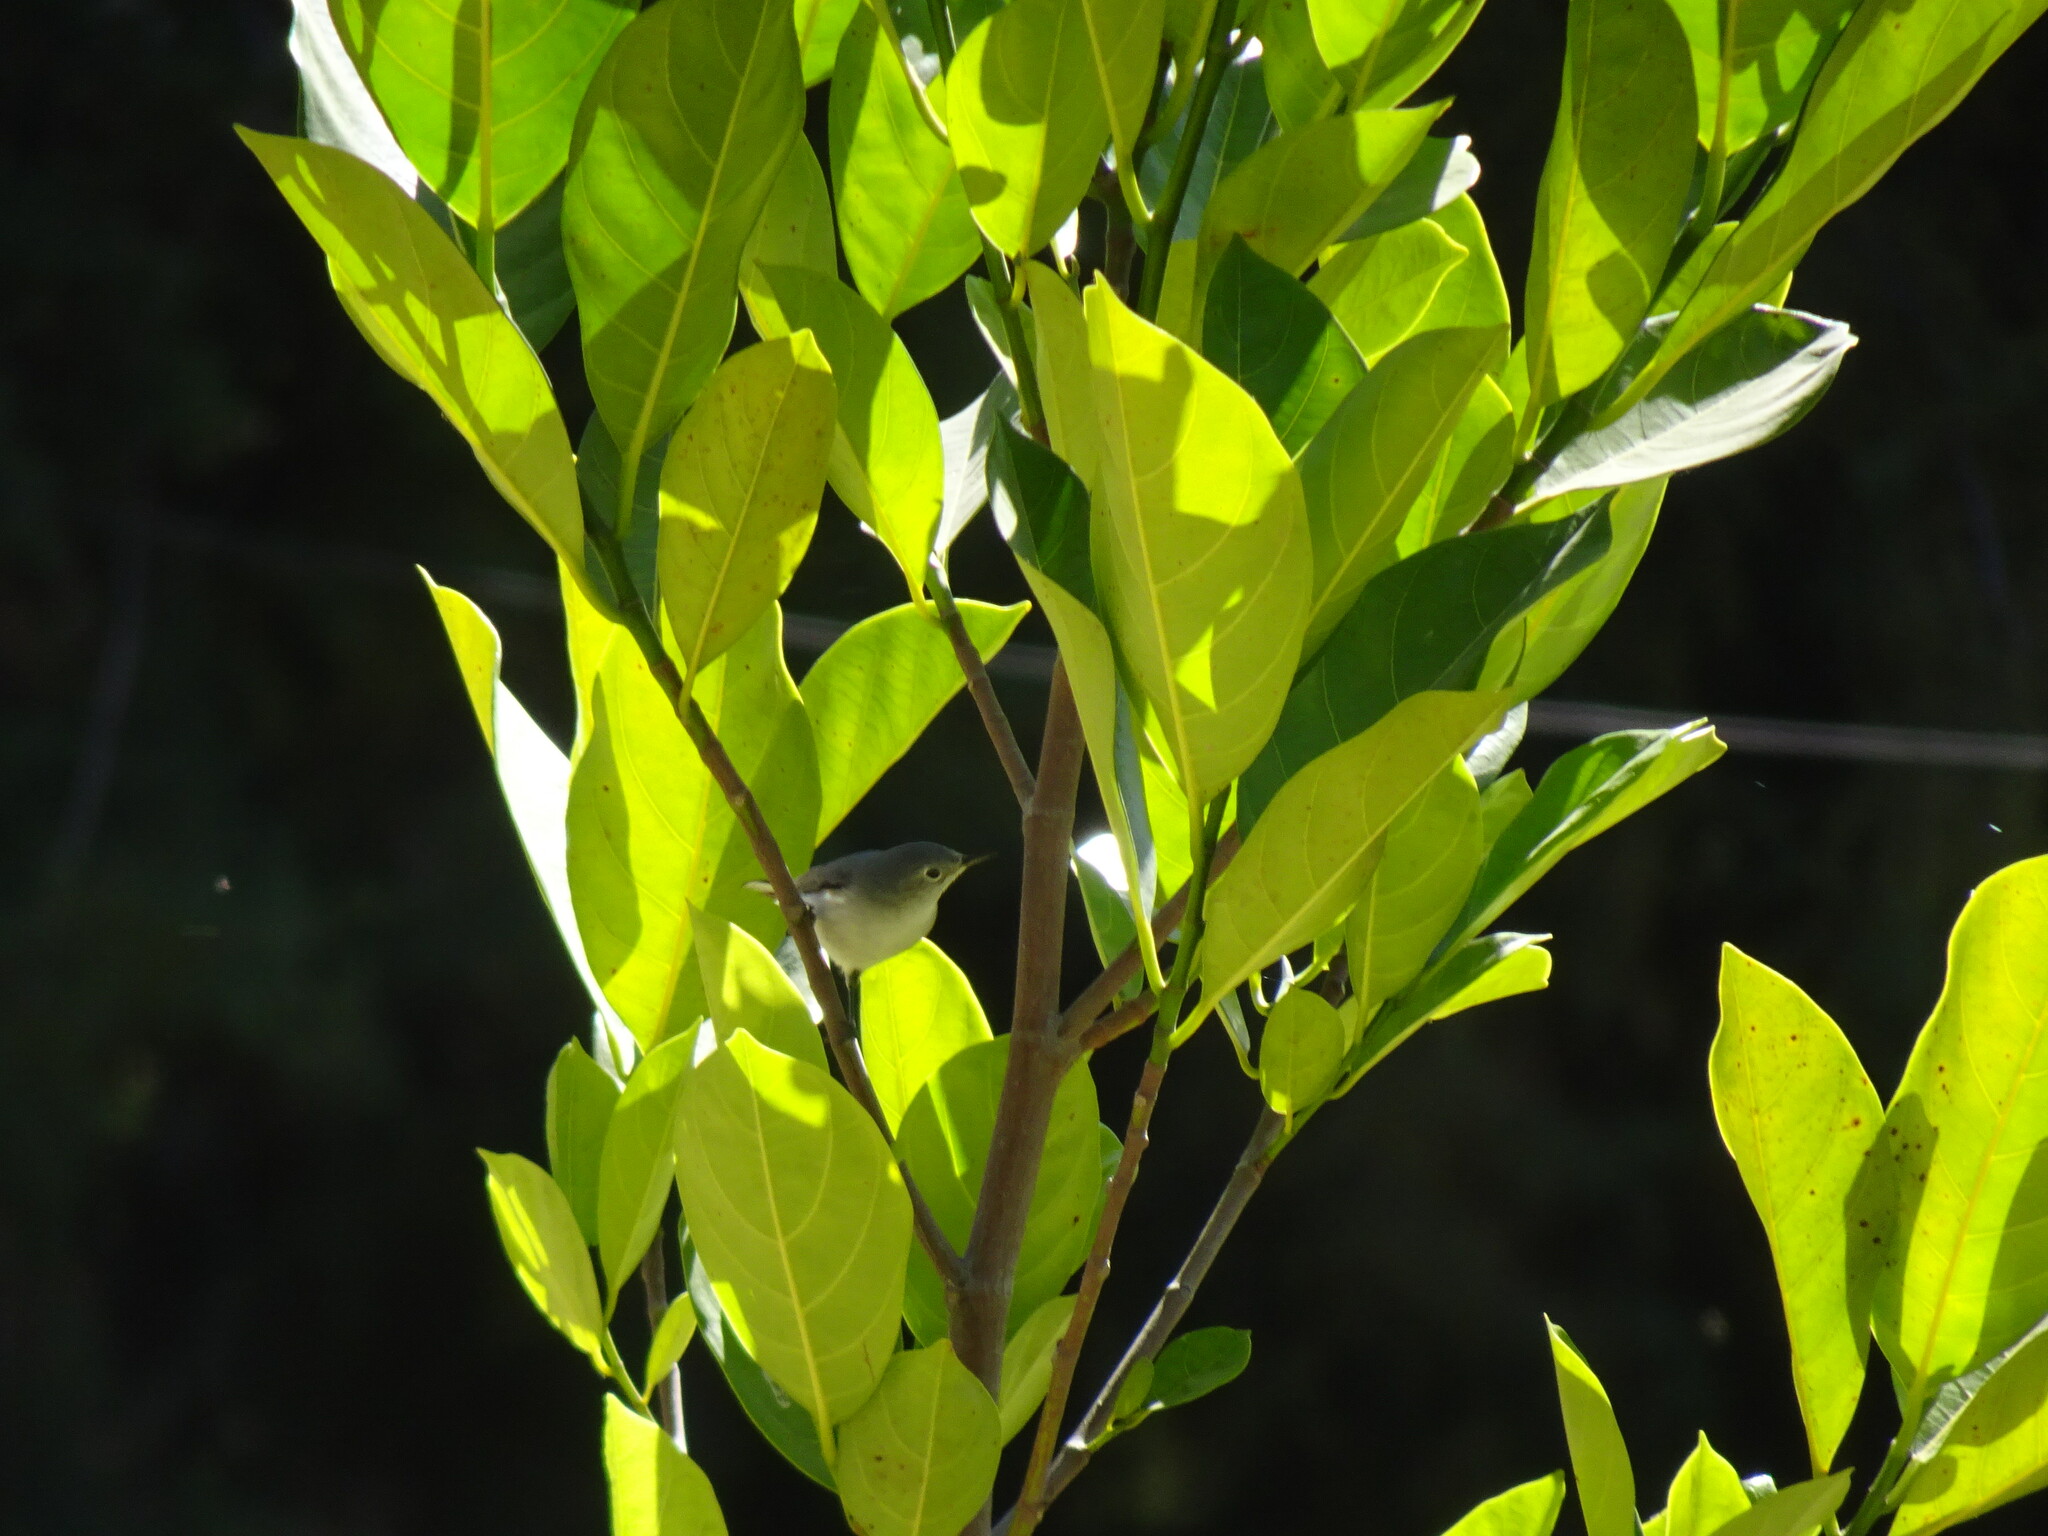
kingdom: Animalia
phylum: Chordata
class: Aves
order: Passeriformes
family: Polioptilidae
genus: Polioptila
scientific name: Polioptila caerulea
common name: Blue-gray gnatcatcher
